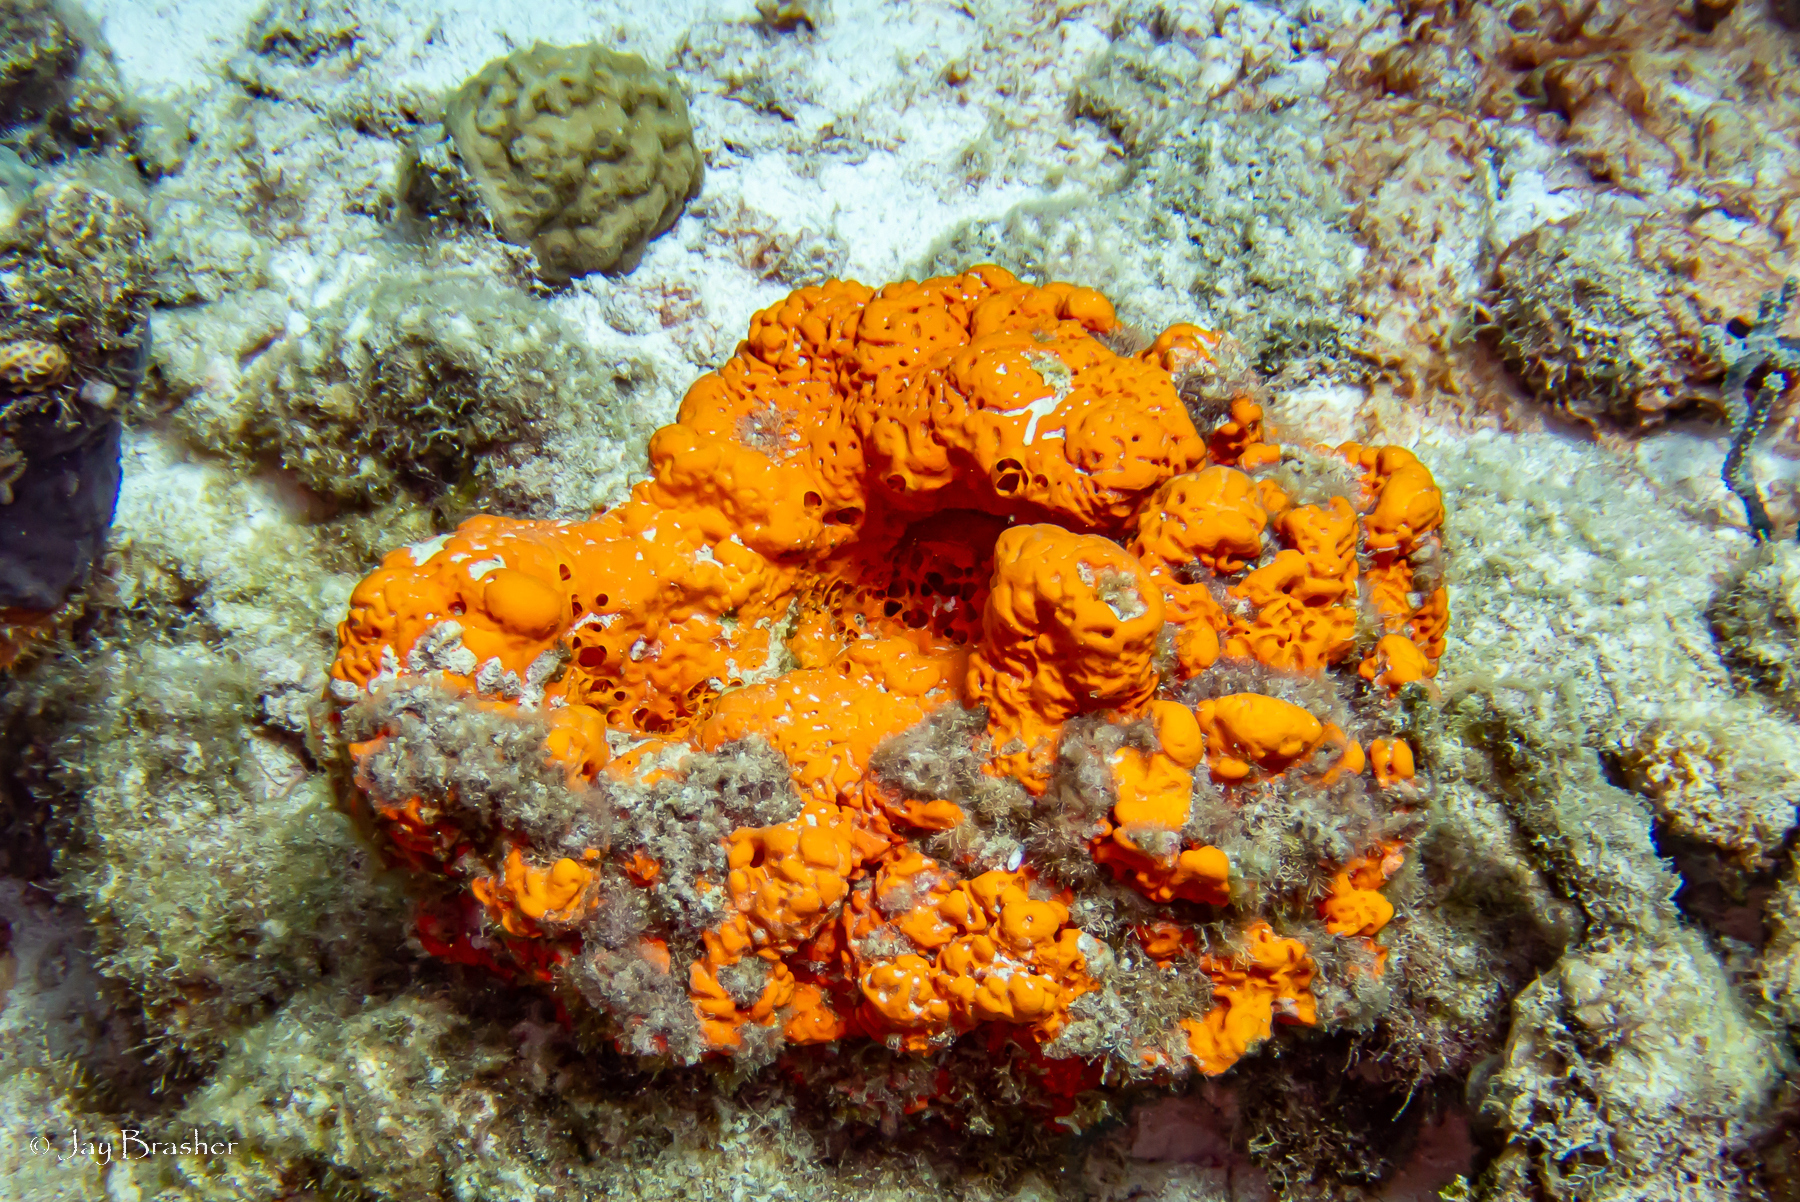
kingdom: Animalia
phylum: Porifera
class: Demospongiae
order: Agelasida
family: Agelasidae
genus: Agelas
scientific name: Agelas clathrodes
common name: Orange elephant ear sponge
